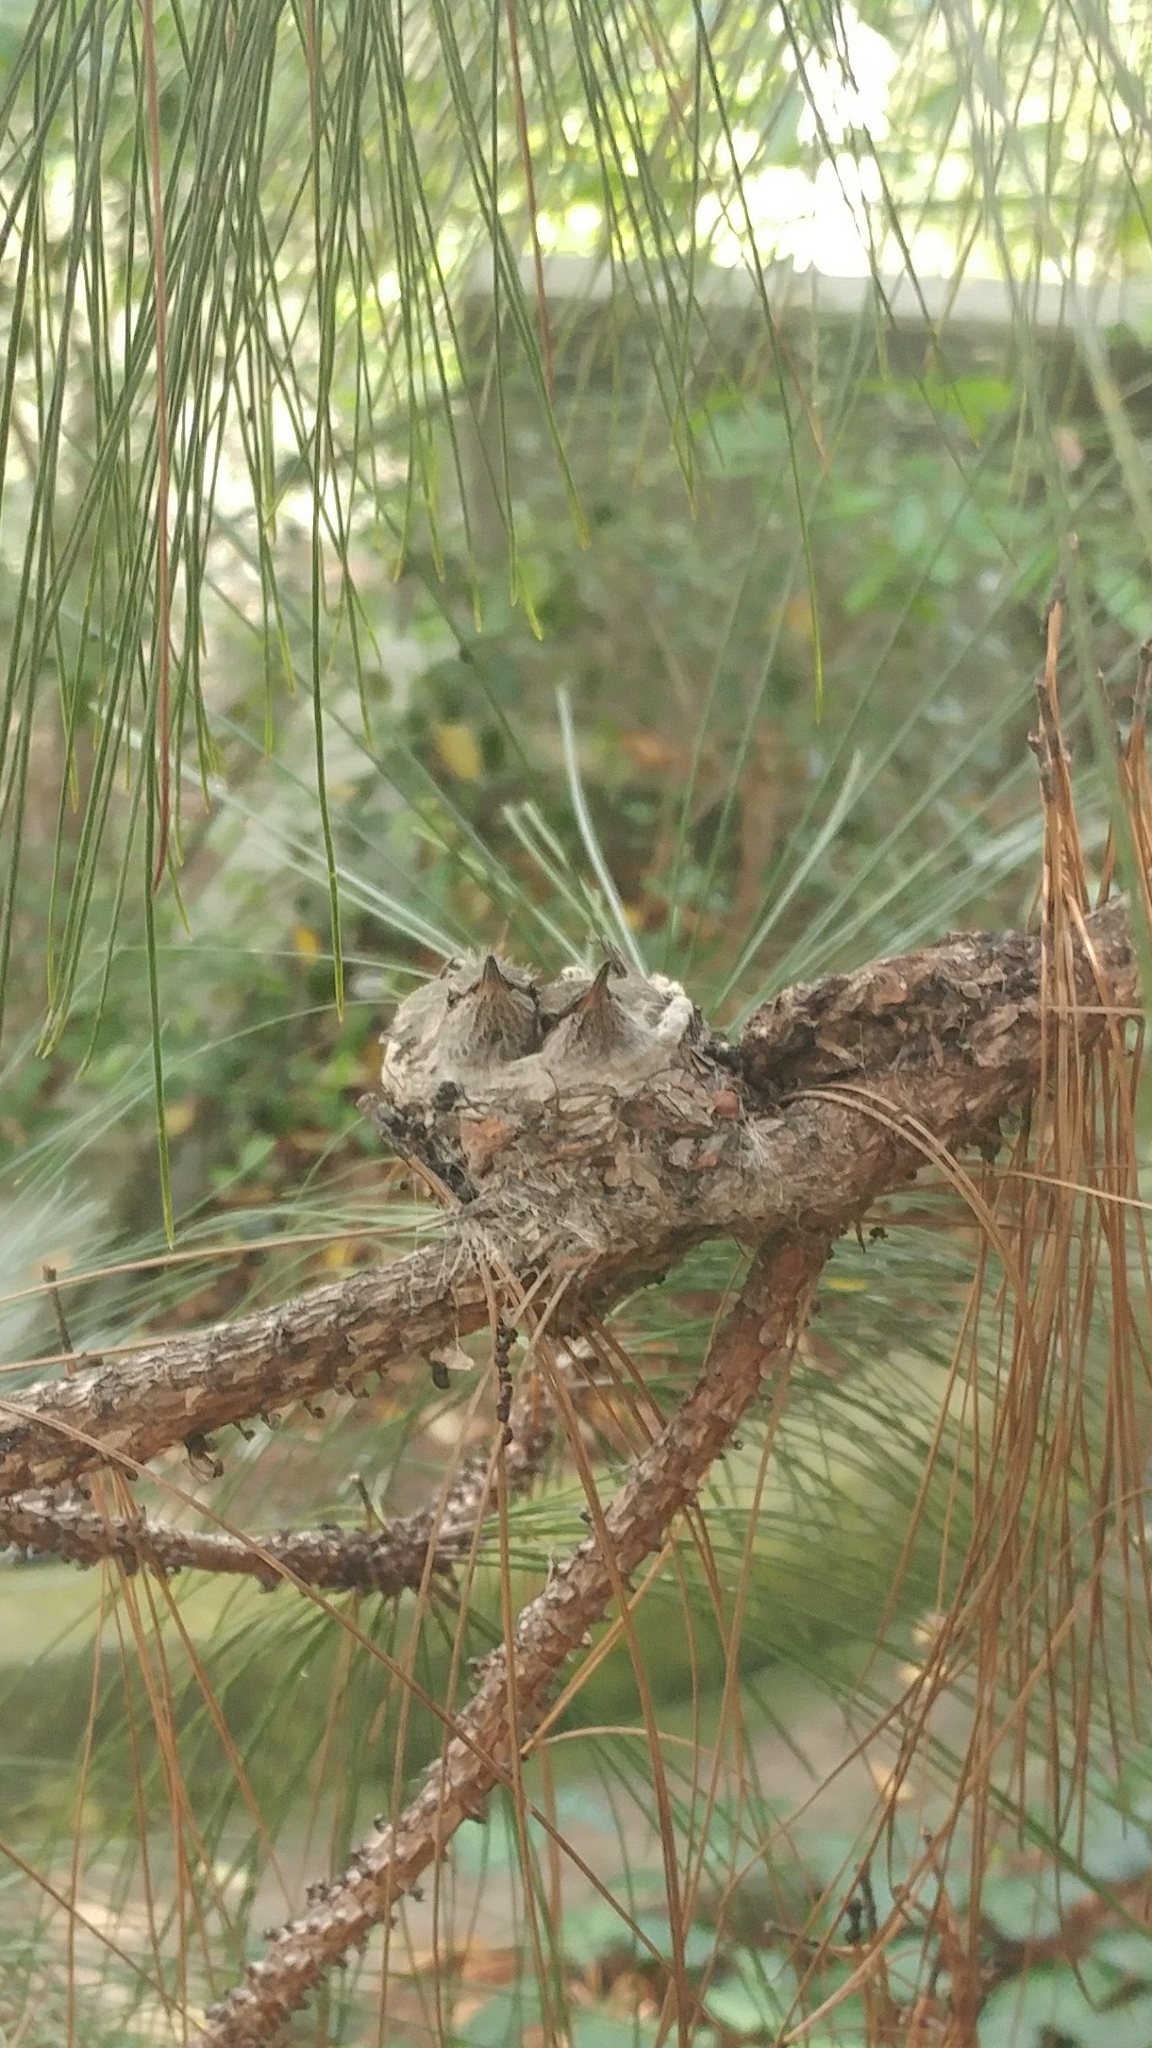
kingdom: Animalia
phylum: Chordata
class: Aves
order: Apodiformes
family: Trochilidae
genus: Calypte
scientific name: Calypte anna
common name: Anna's hummingbird
